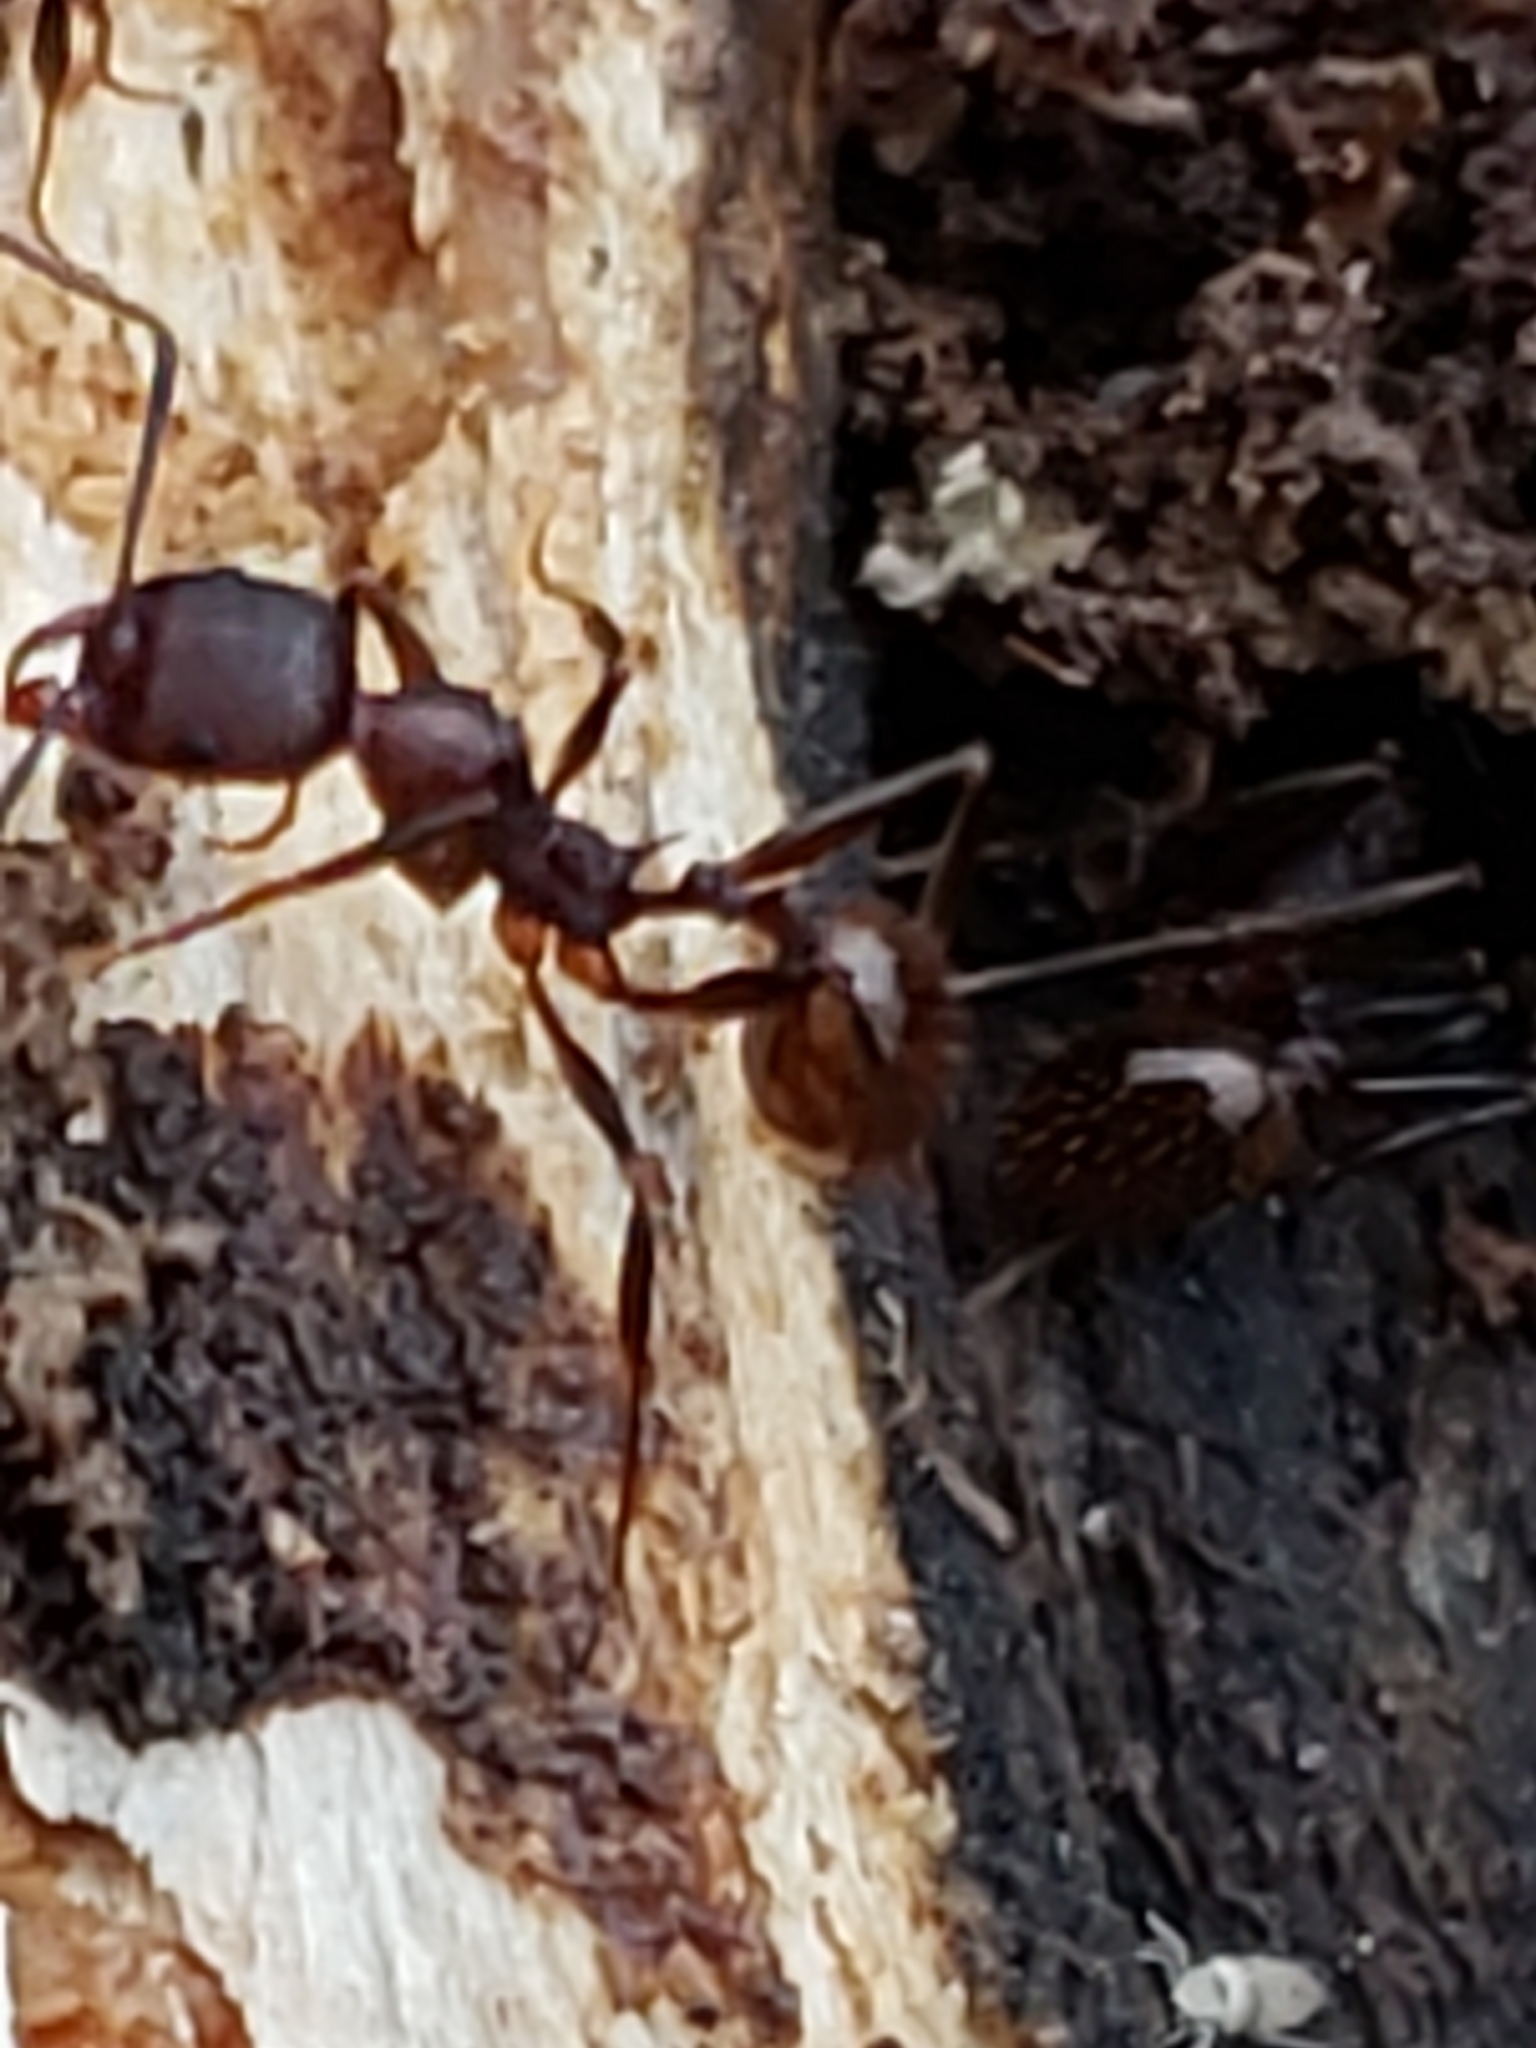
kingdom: Animalia
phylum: Arthropoda
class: Insecta
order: Hymenoptera
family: Formicidae
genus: Aphaenogaster
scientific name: Aphaenogaster fulva
